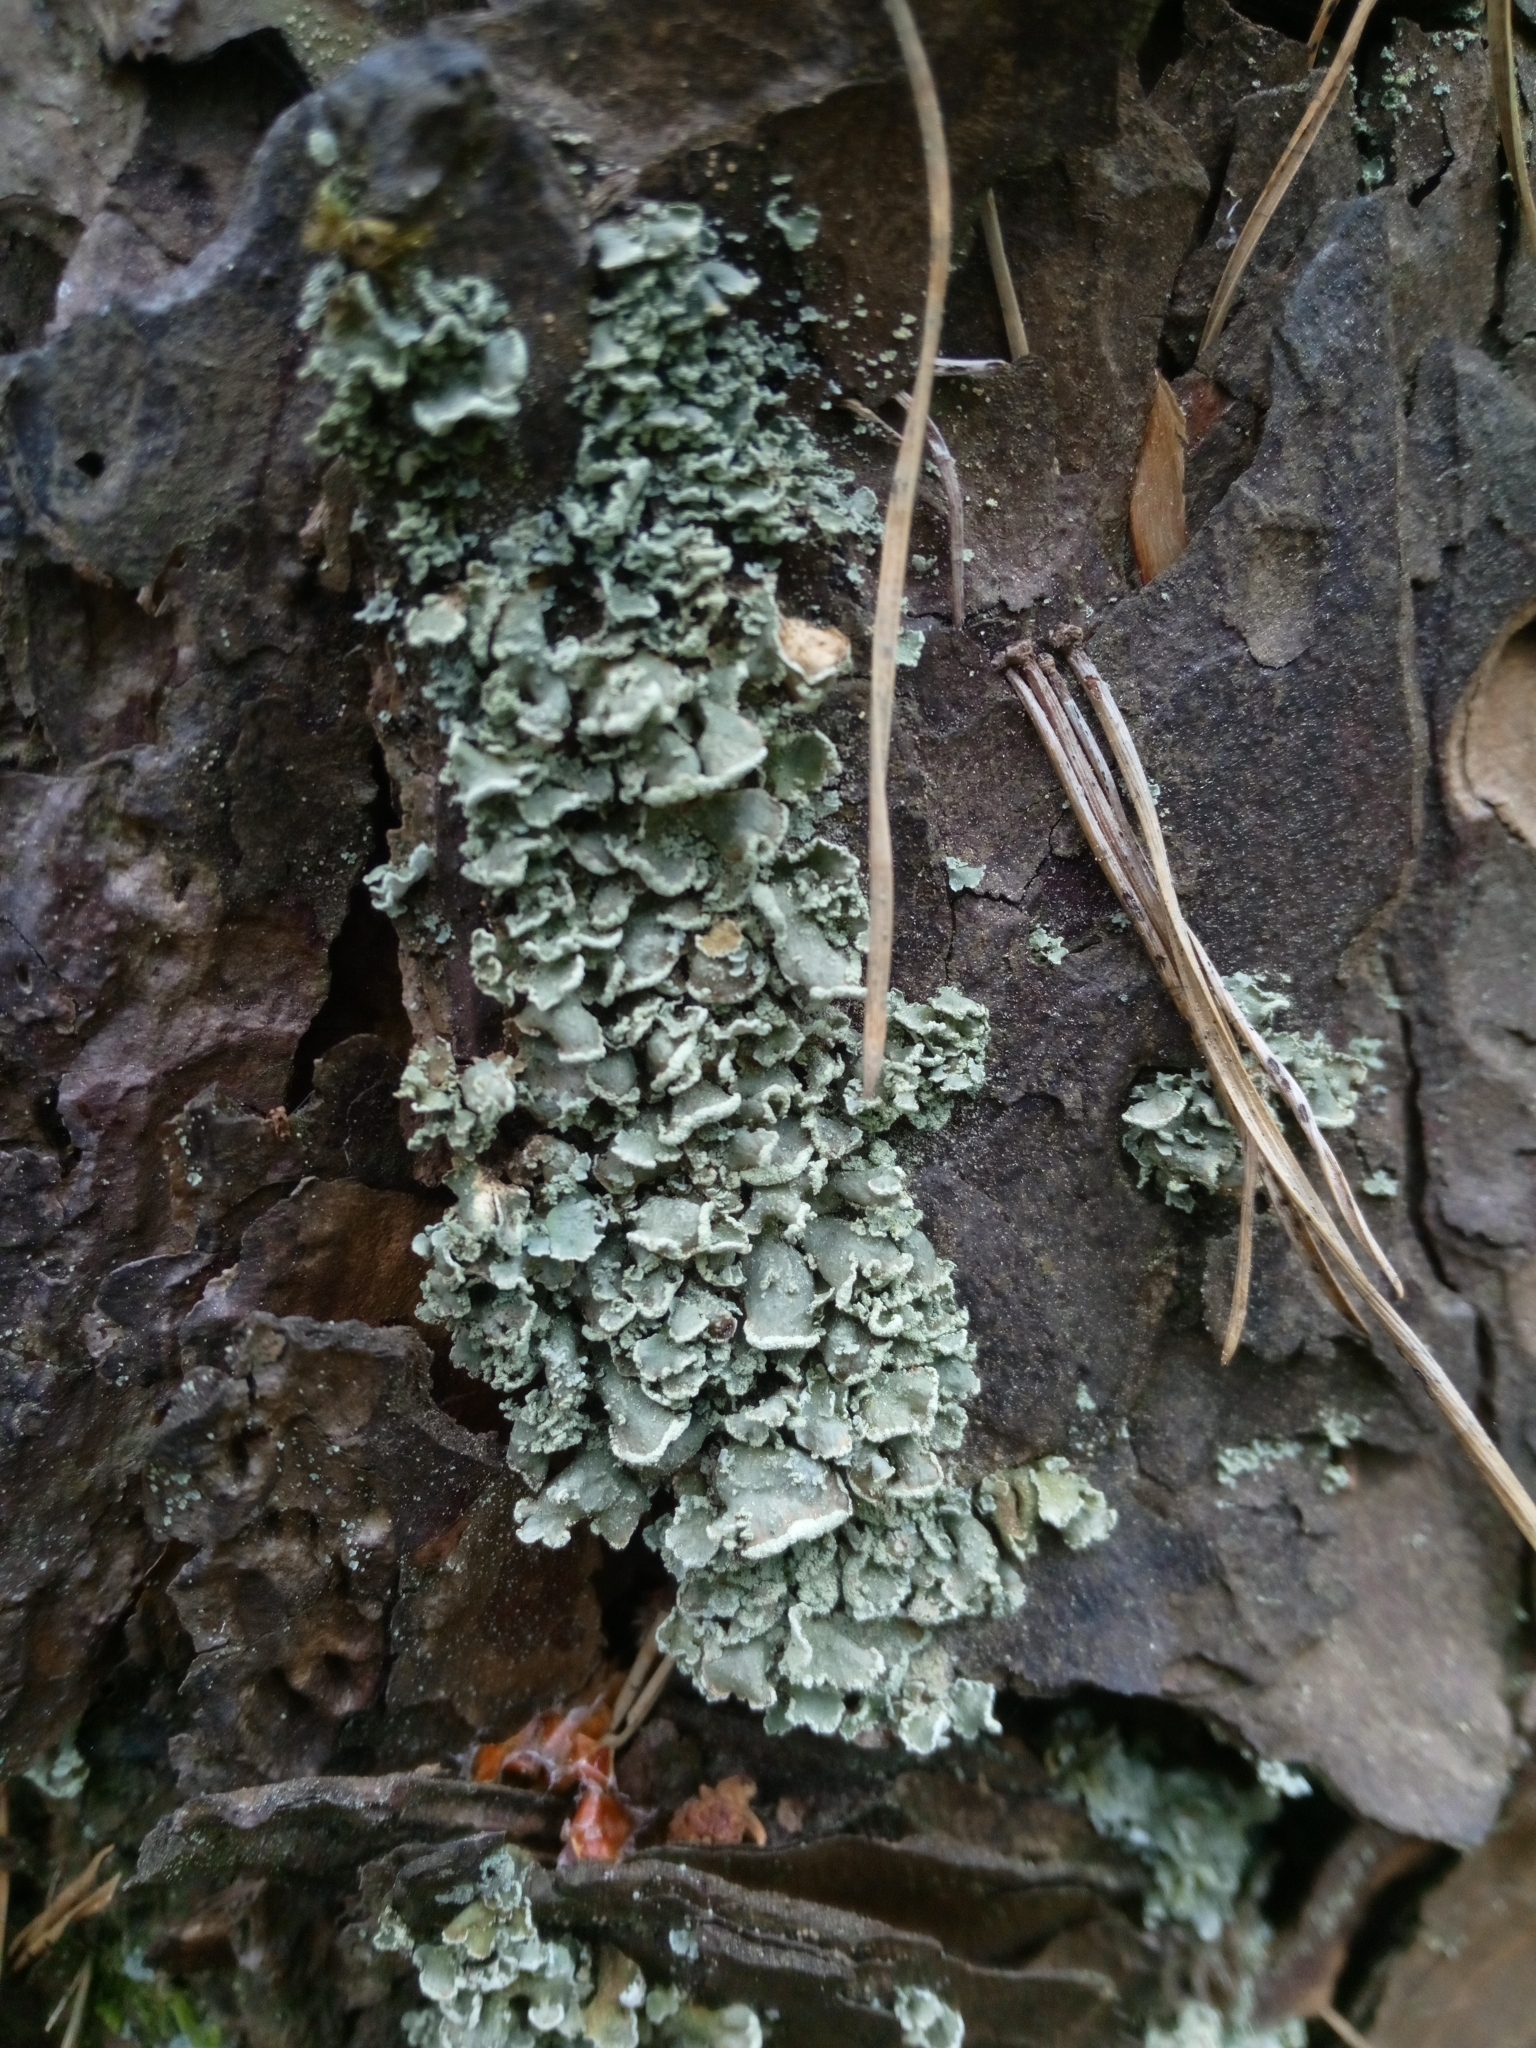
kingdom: Fungi
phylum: Ascomycota
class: Lecanoromycetes
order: Lecanorales
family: Cladoniaceae
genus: Cladonia
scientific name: Cladonia digitata
